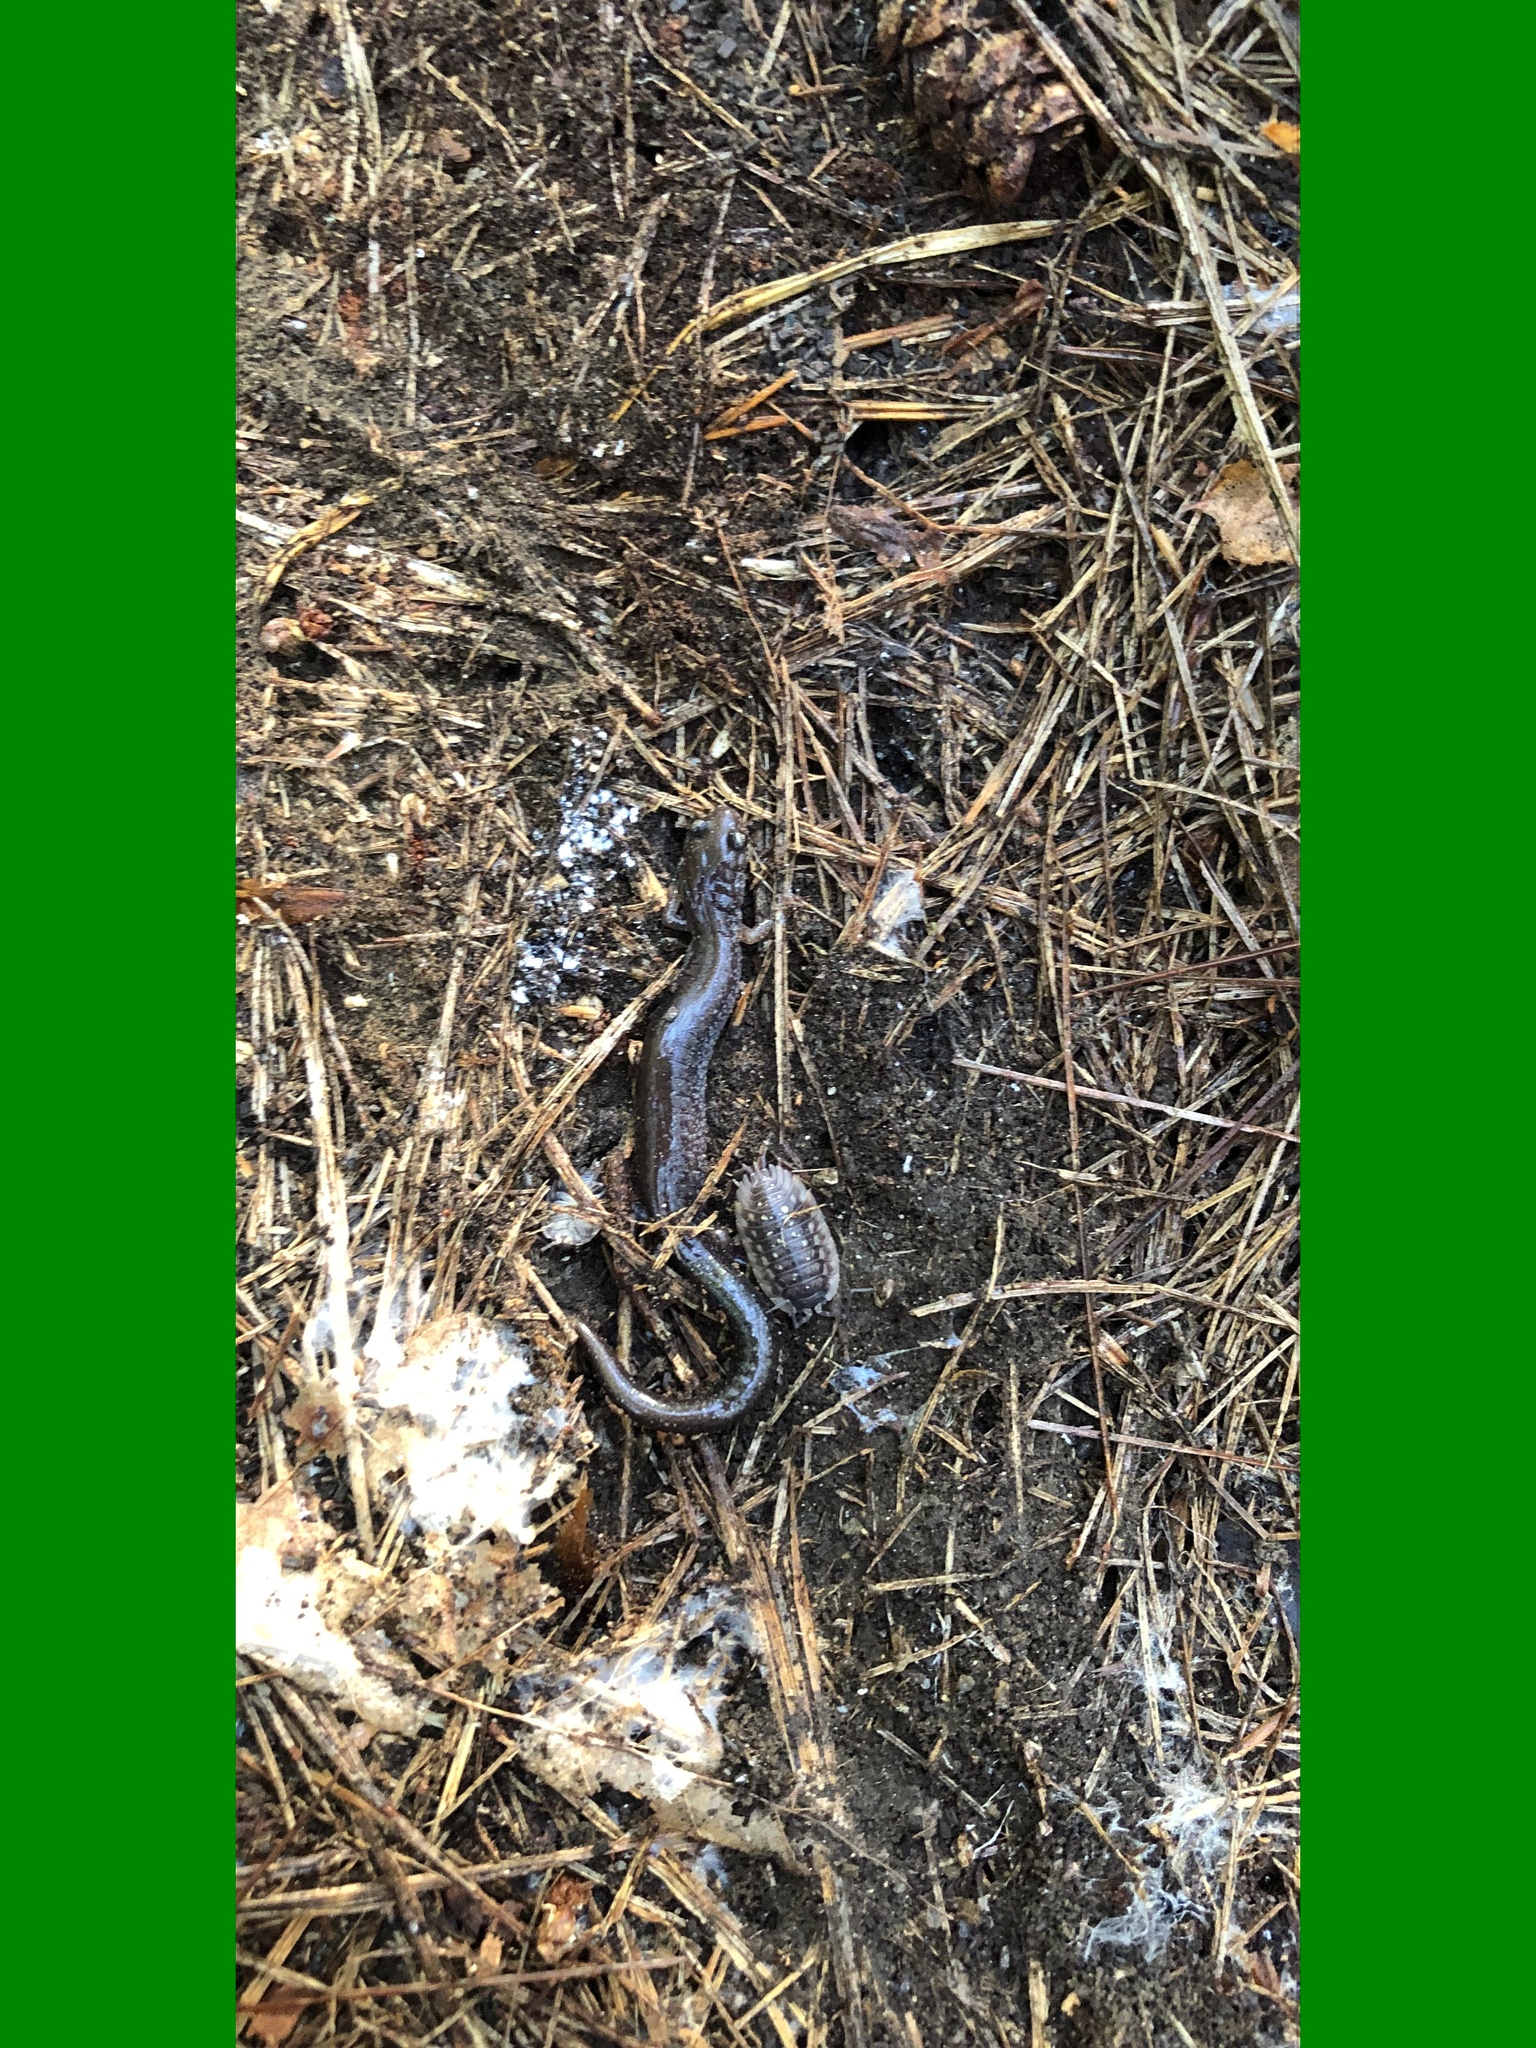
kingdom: Animalia
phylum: Chordata
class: Amphibia
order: Caudata
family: Plethodontidae
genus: Plethodon
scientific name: Plethodon cinereus
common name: Redback salamander
